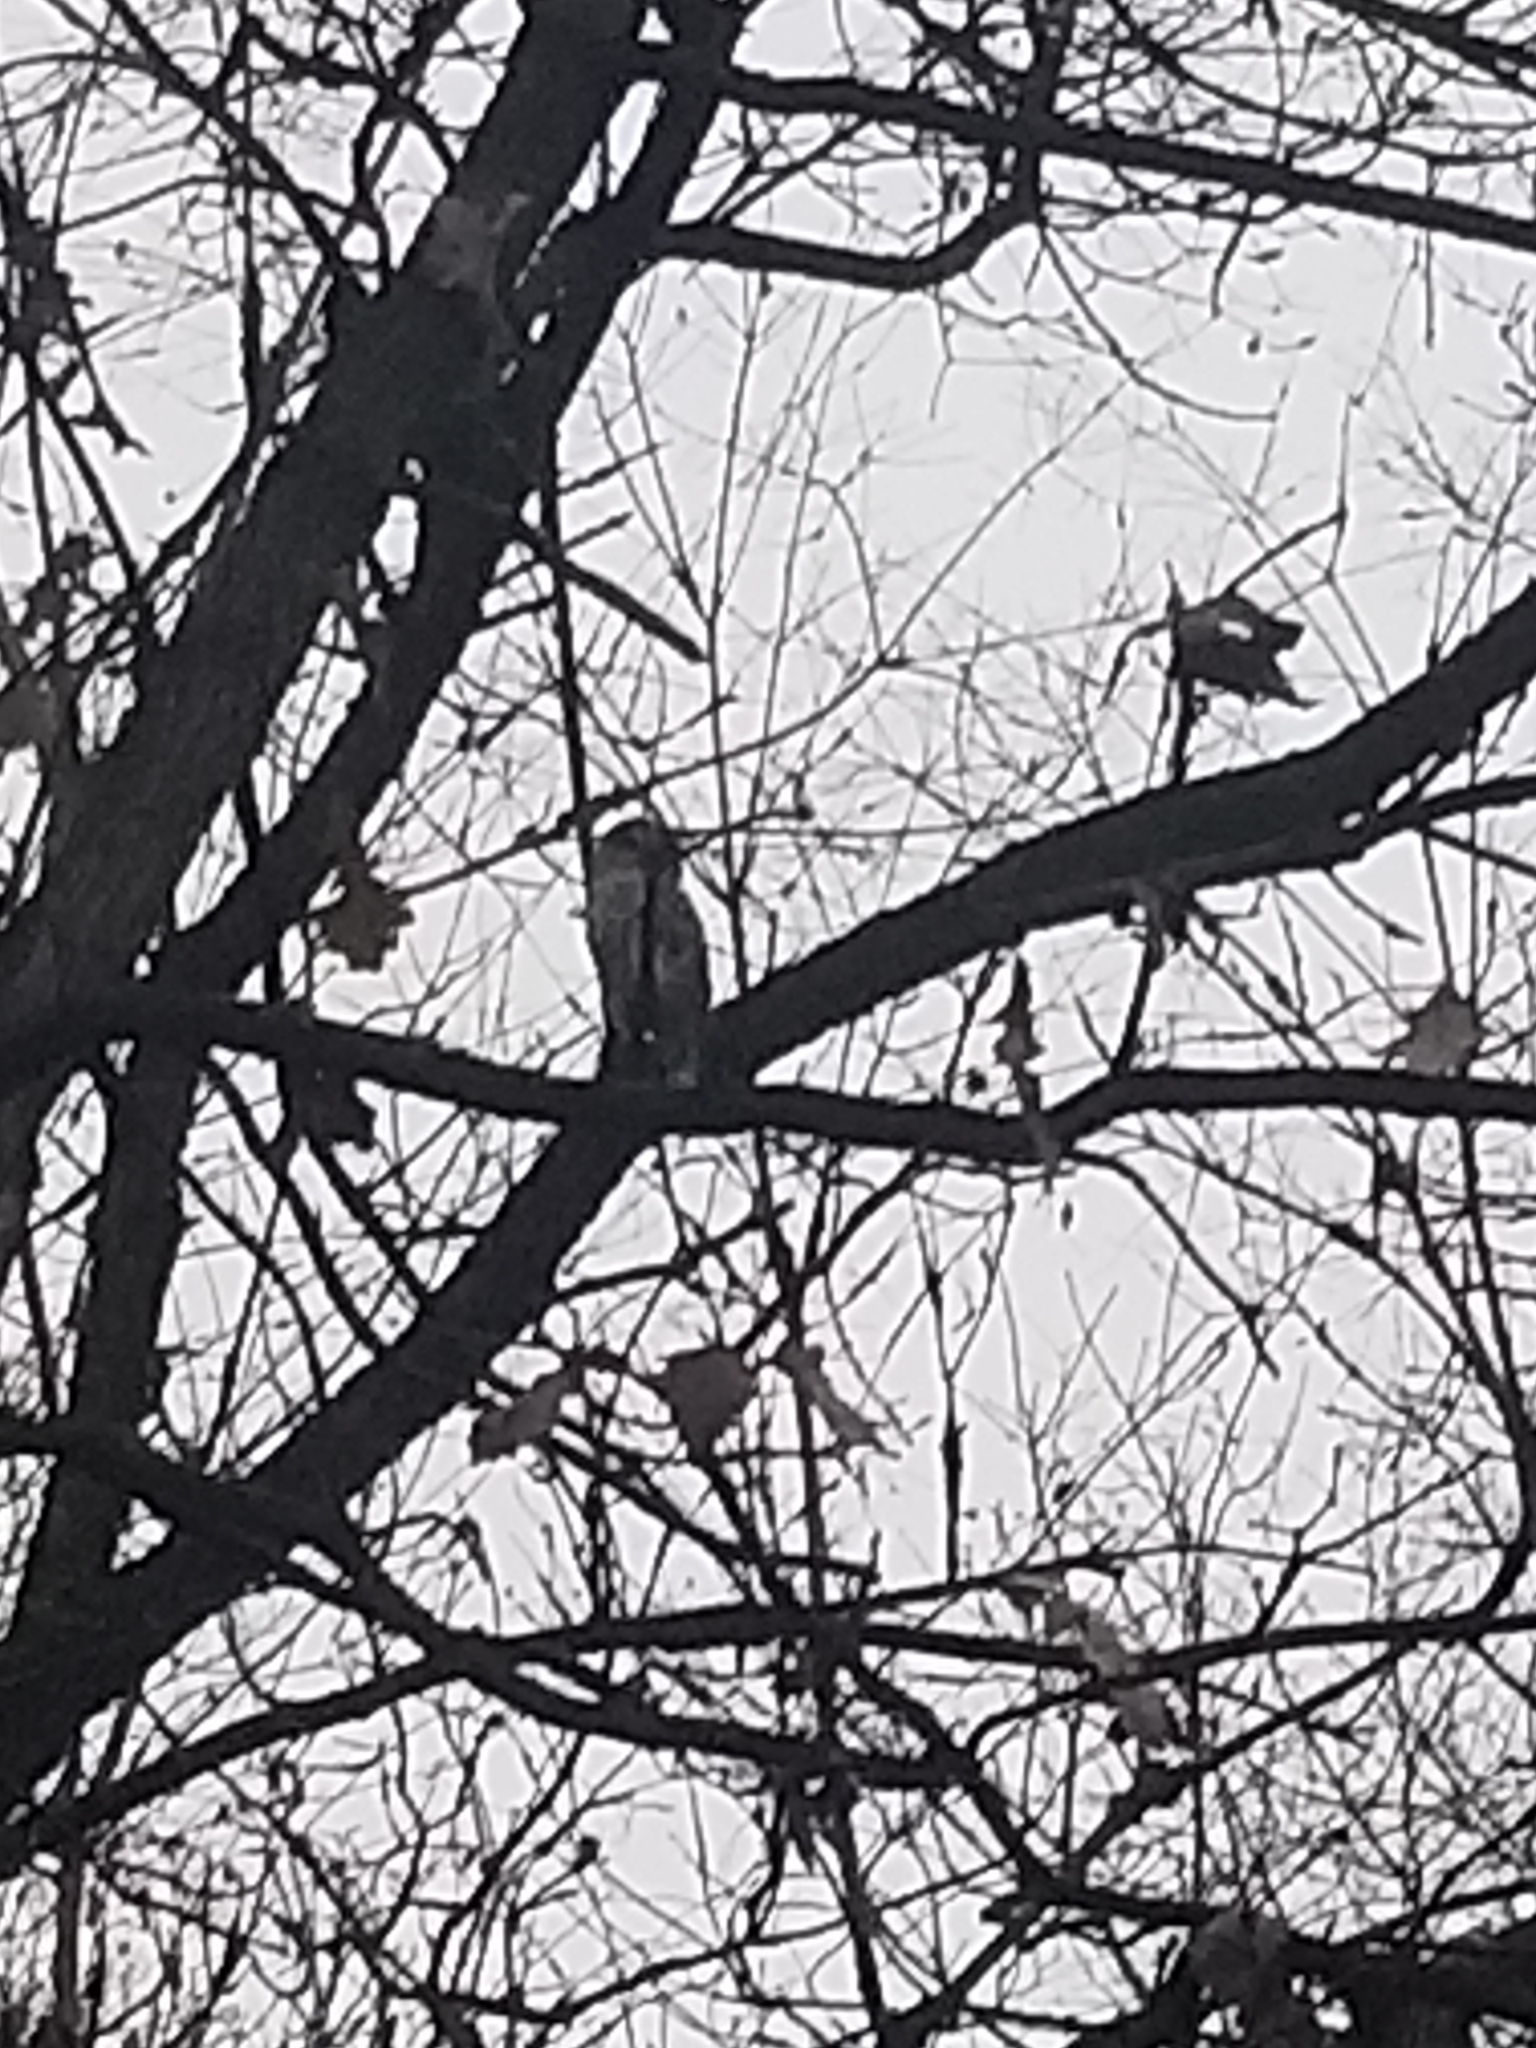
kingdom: Animalia
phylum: Chordata
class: Aves
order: Strigiformes
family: Strigidae
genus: Strix
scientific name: Strix varia
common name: Barred owl
